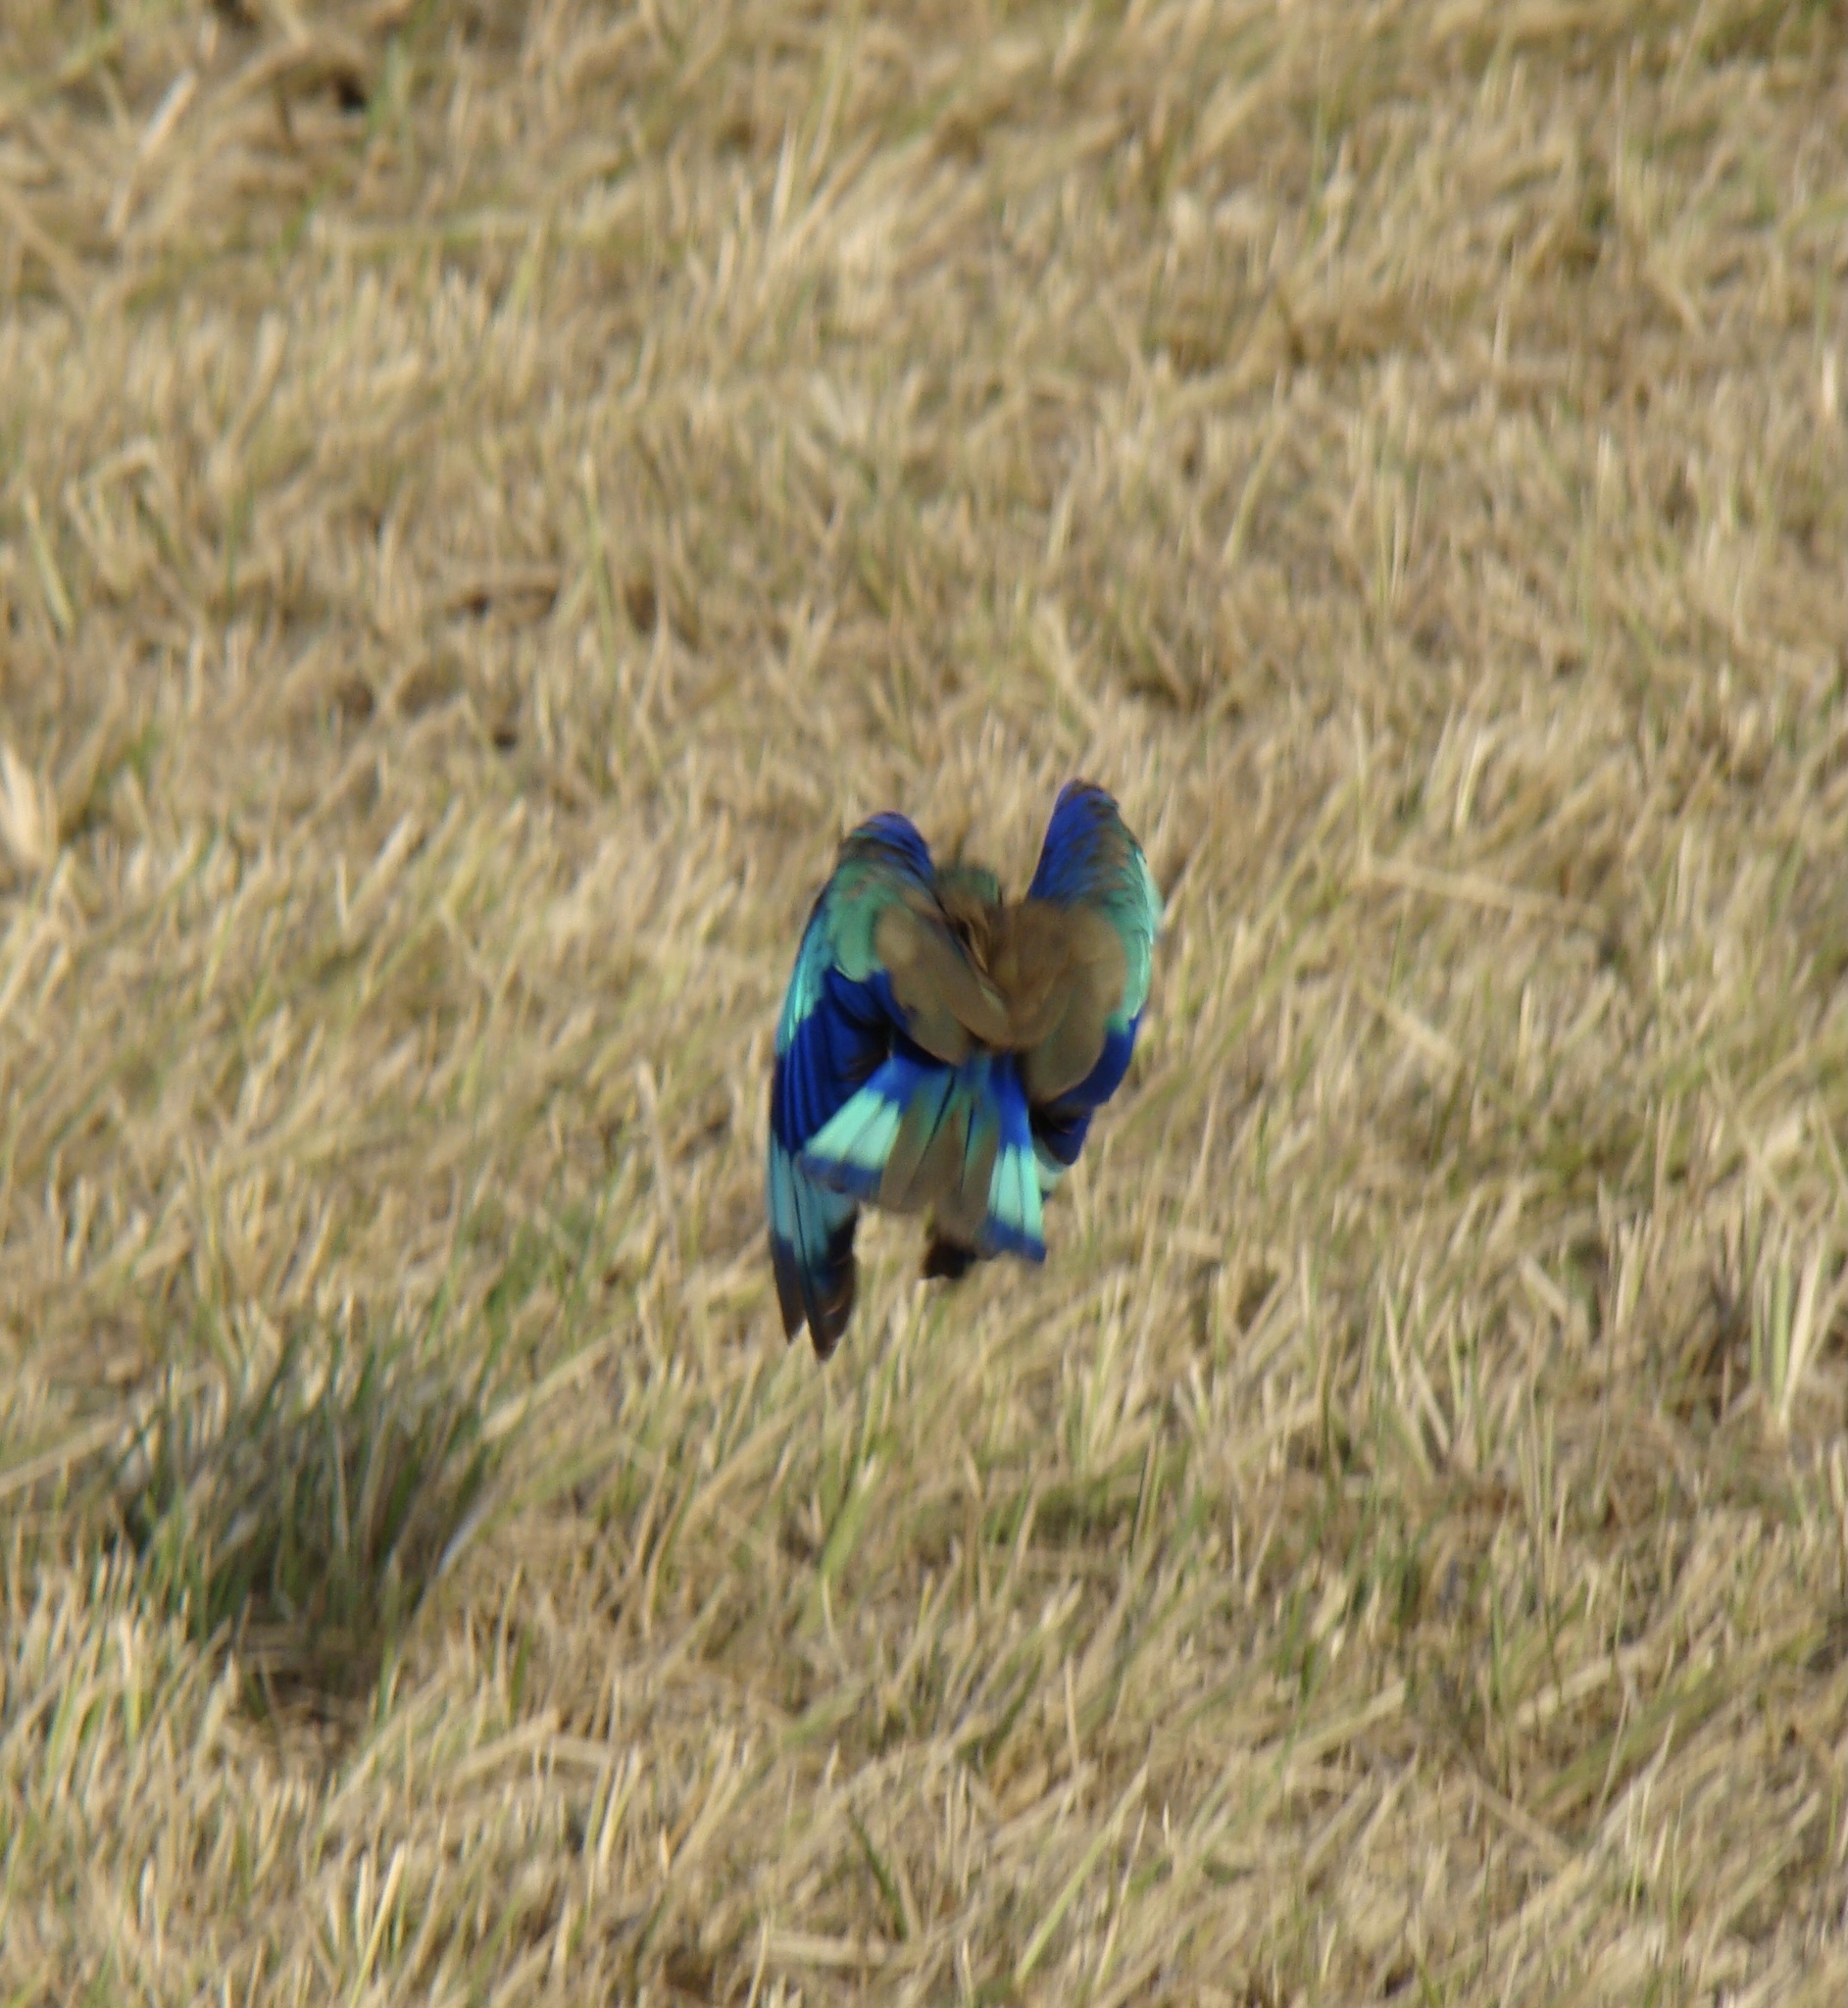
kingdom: Animalia
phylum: Chordata
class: Aves
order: Coraciiformes
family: Coraciidae
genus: Coracias
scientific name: Coracias benghalensis
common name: Indian roller
